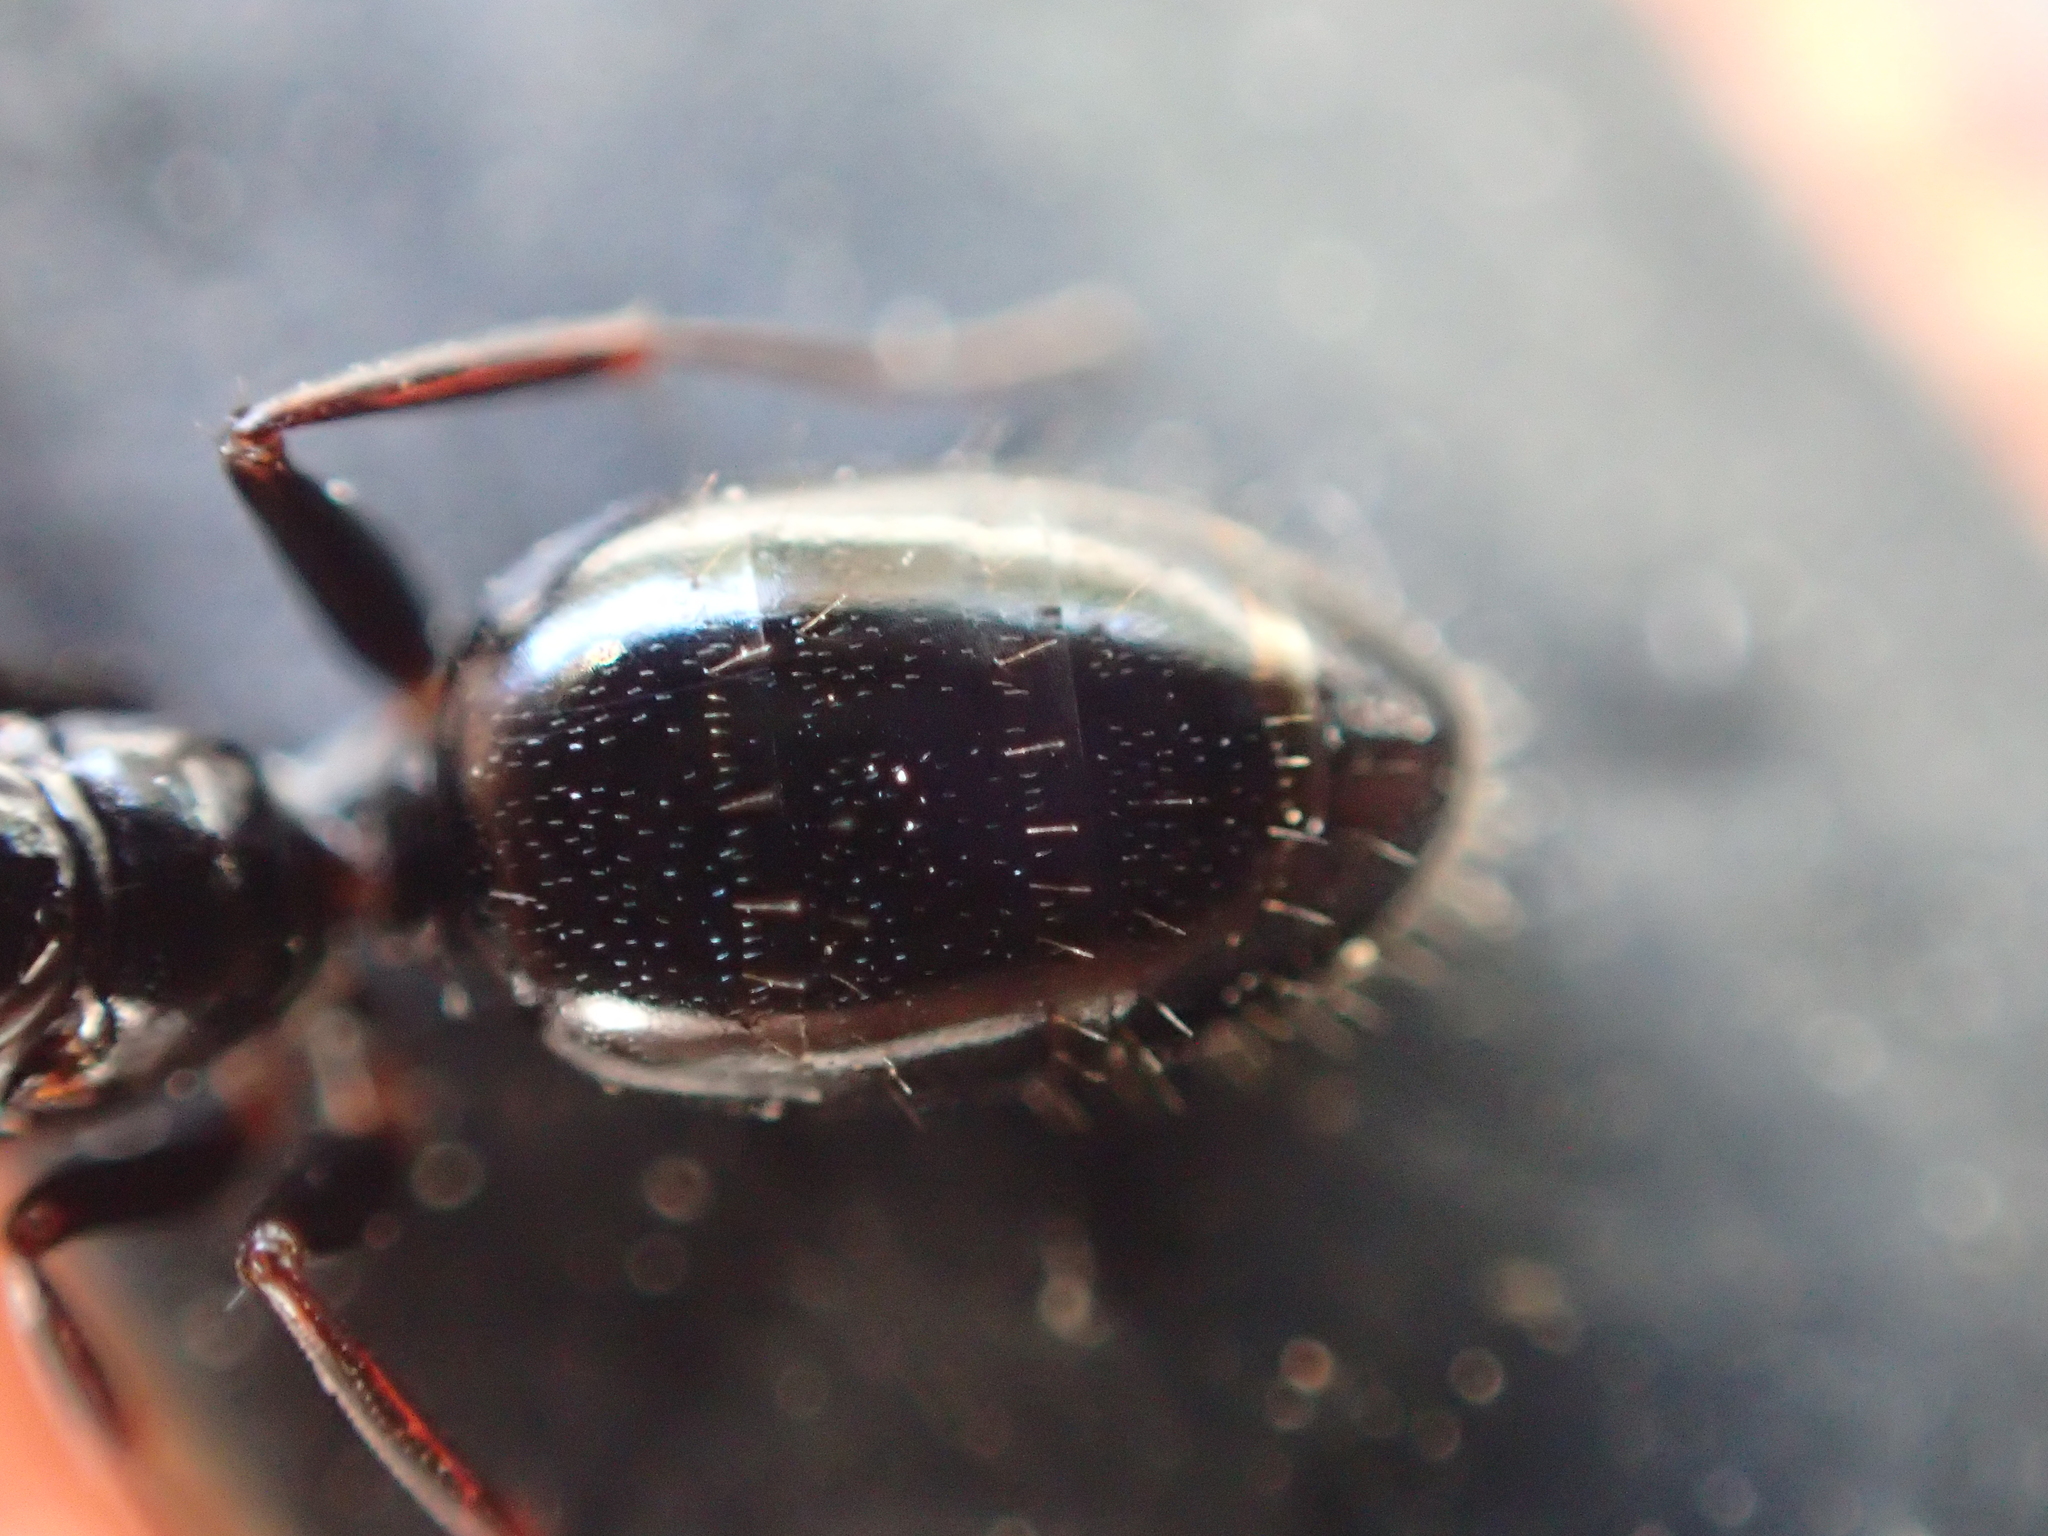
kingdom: Animalia
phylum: Arthropoda
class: Insecta
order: Hymenoptera
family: Formicidae
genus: Camponotus
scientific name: Camponotus lateralis
